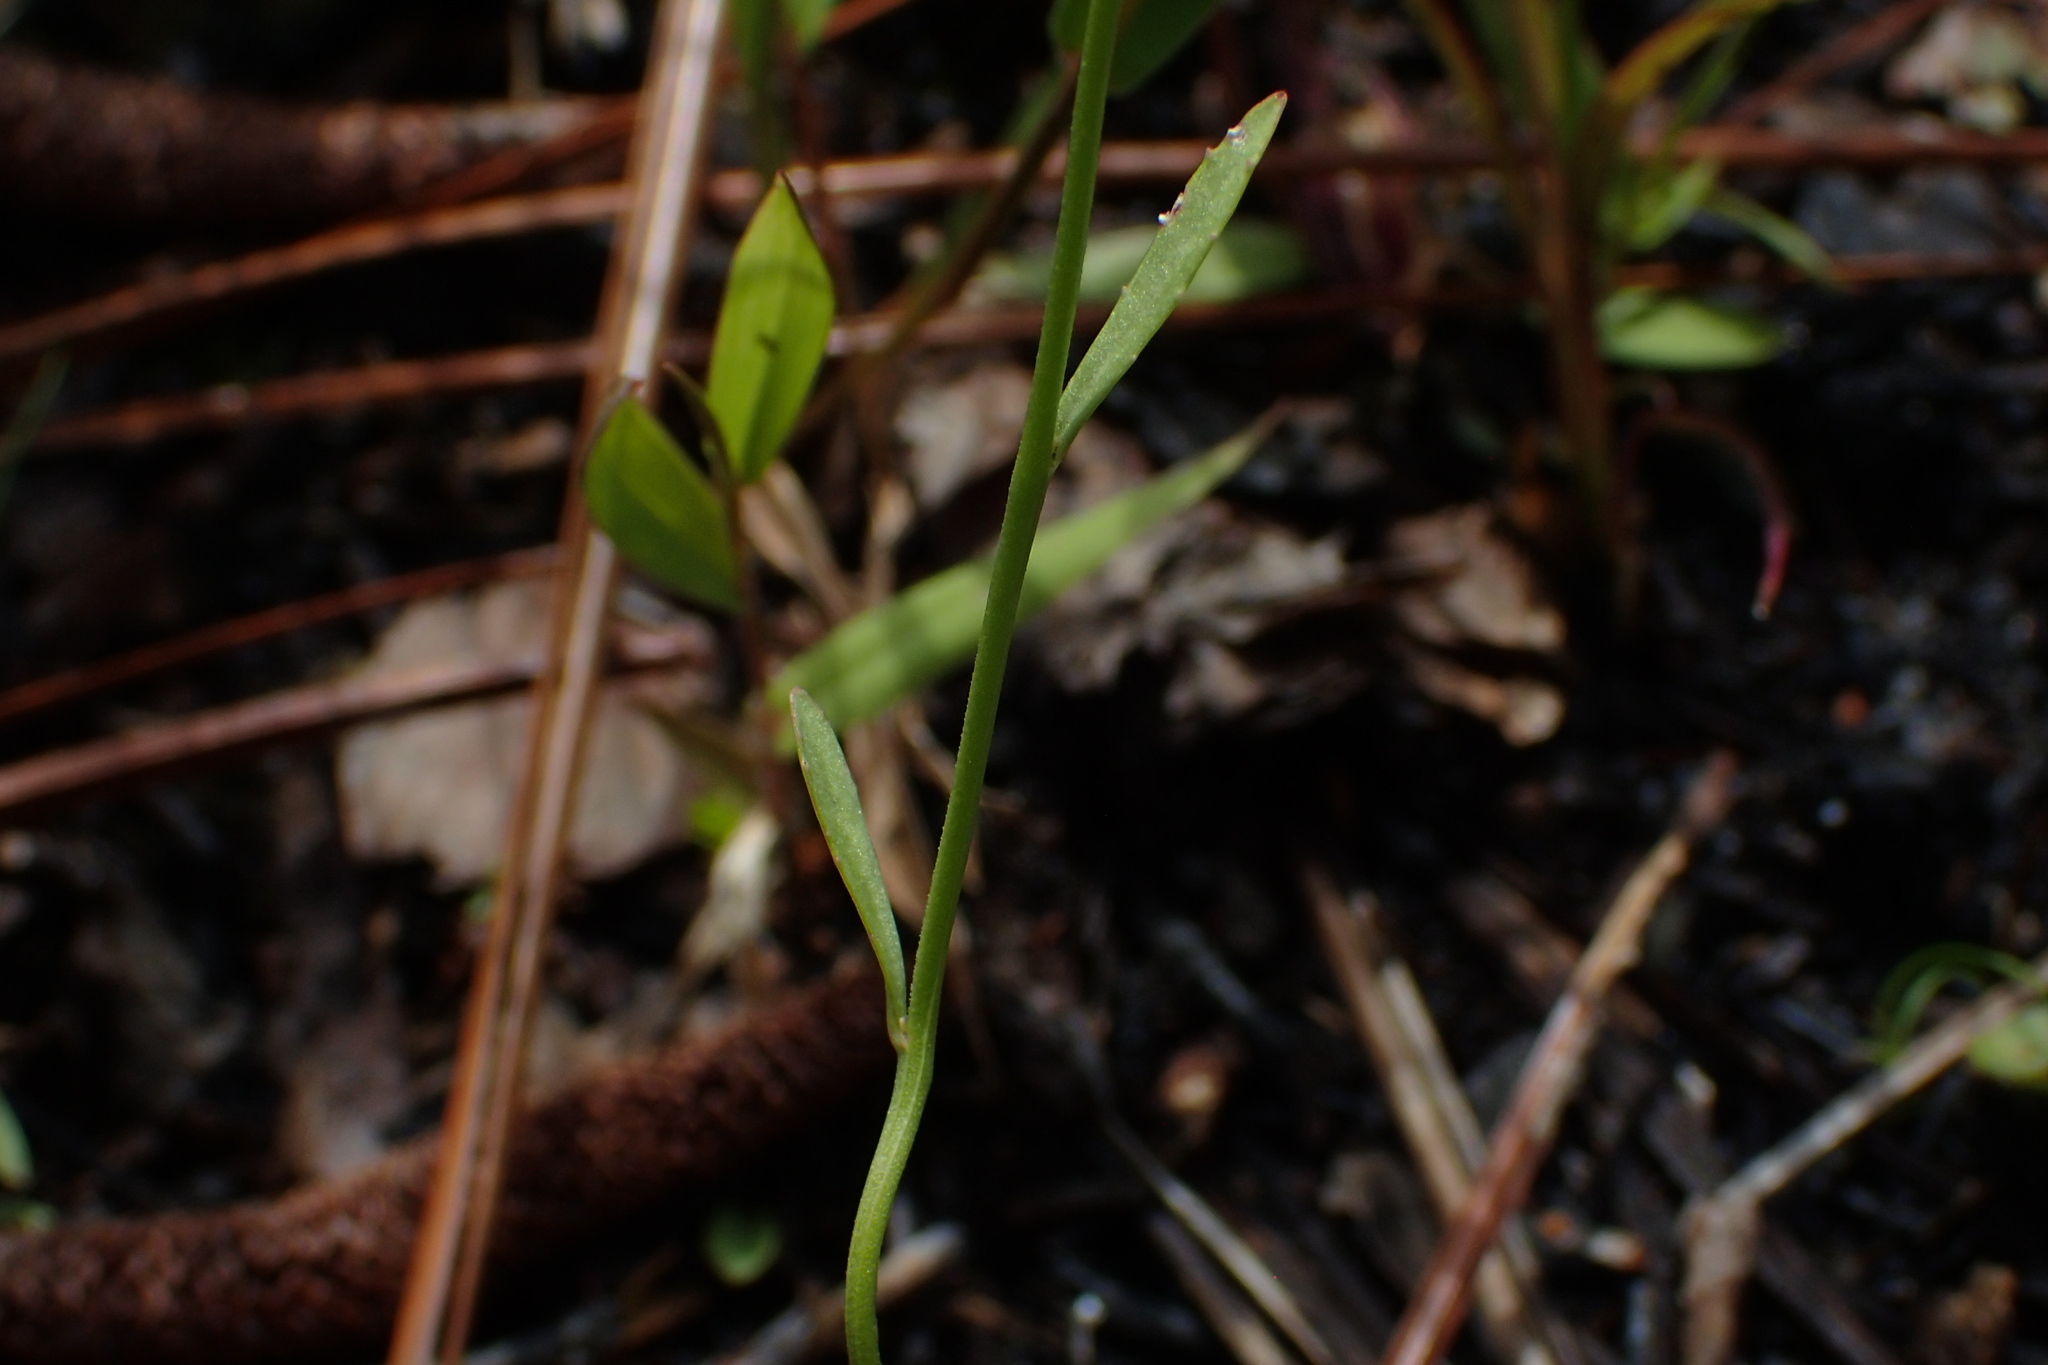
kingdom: Plantae
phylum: Tracheophyta
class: Magnoliopsida
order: Asterales
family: Campanulaceae
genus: Lobelia
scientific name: Lobelia nuttallii
